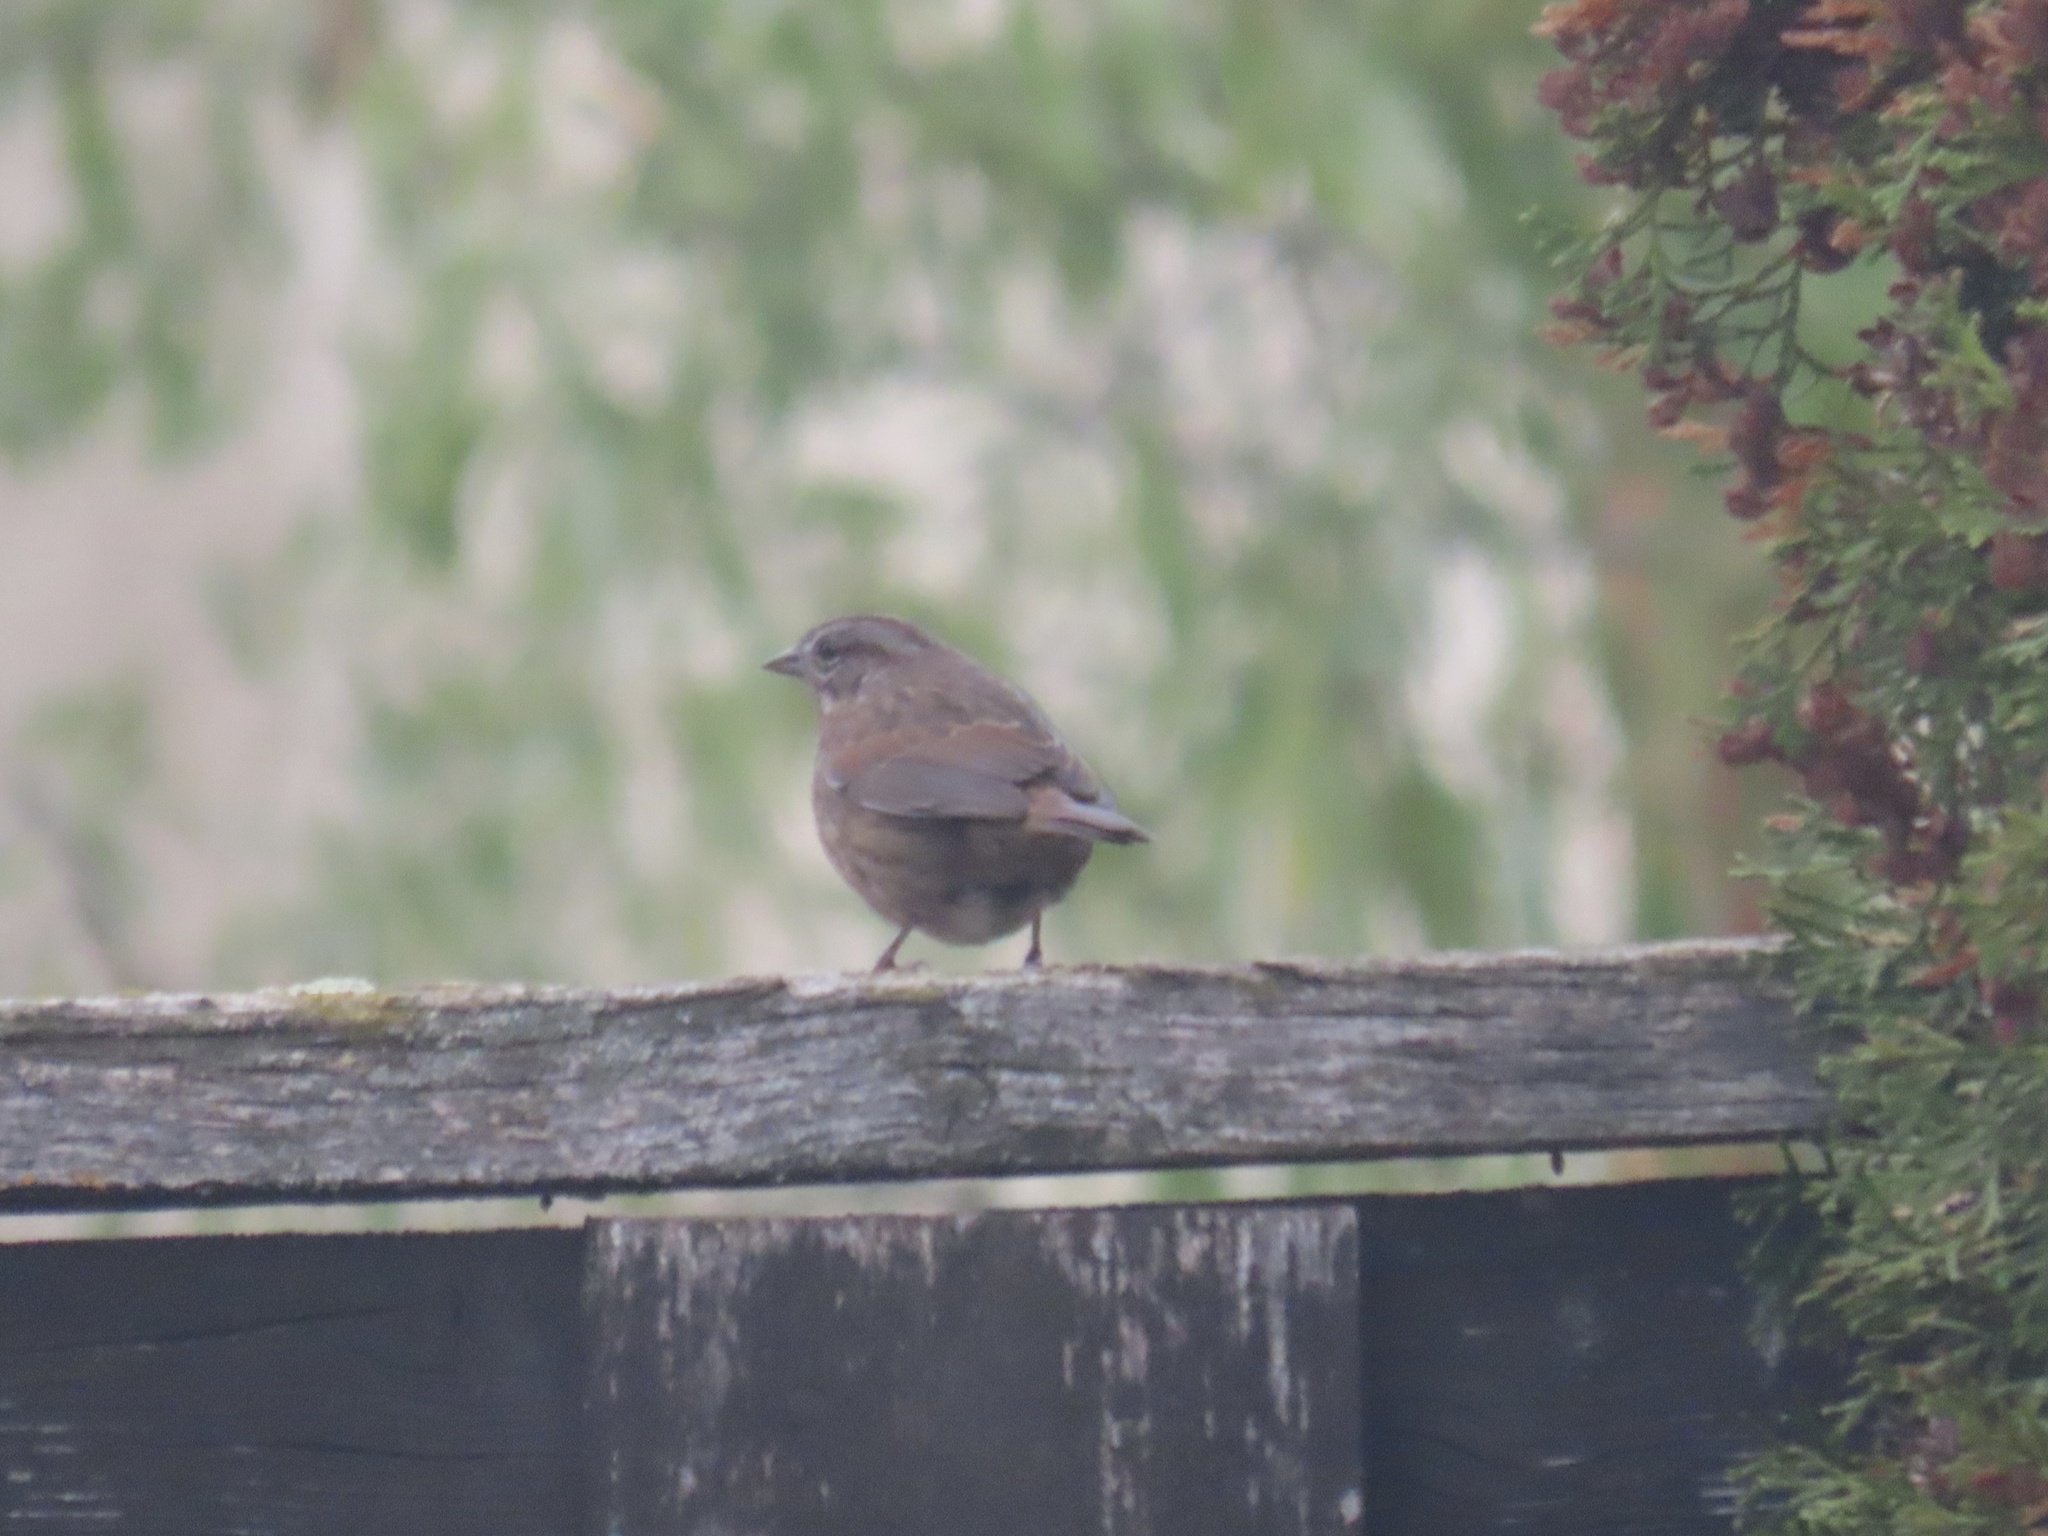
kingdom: Animalia
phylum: Chordata
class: Aves
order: Passeriformes
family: Passerellidae
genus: Melospiza
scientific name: Melospiza melodia
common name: Song sparrow
